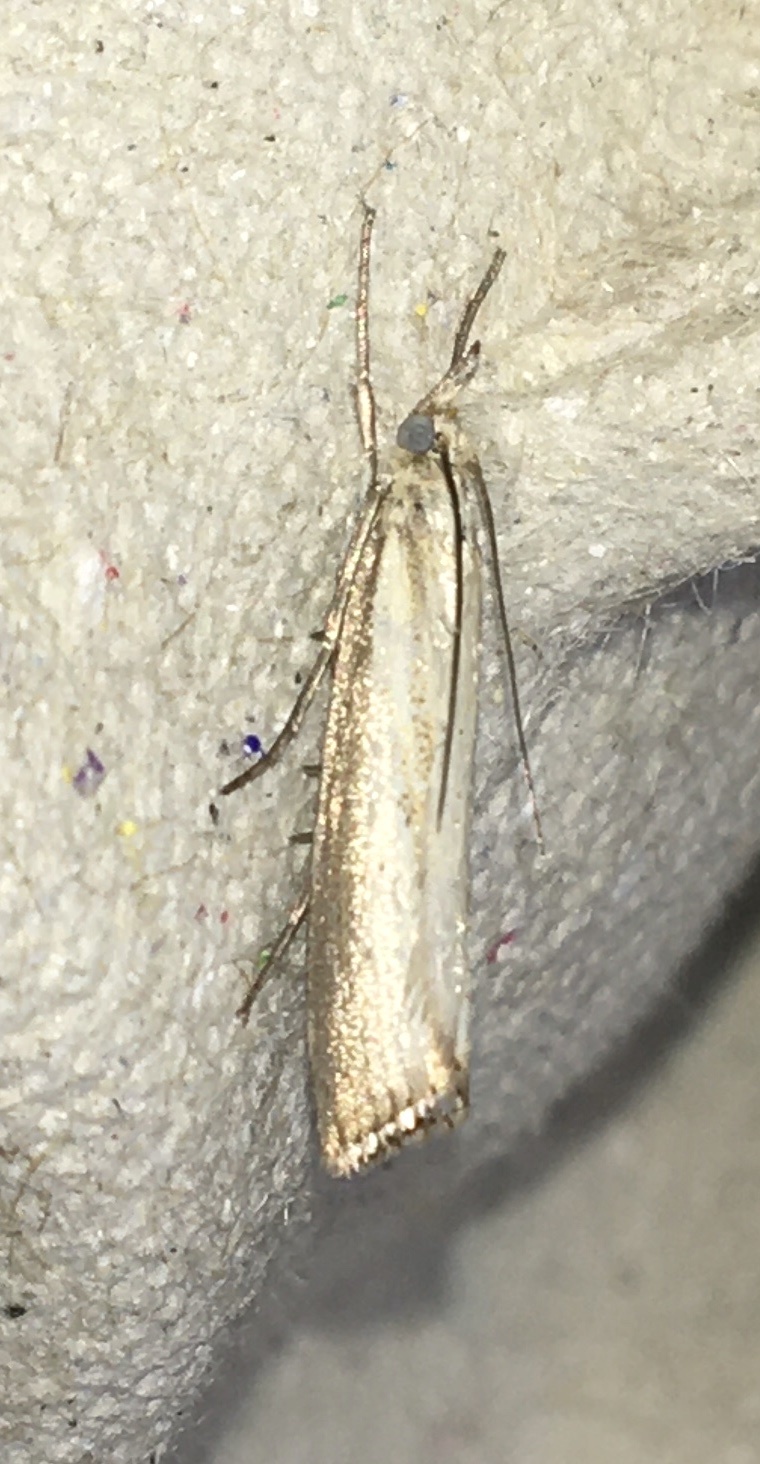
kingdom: Animalia
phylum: Arthropoda
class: Insecta
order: Lepidoptera
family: Crambidae
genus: Agriphila
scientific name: Agriphila straminella
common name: Straw grass-veneer
